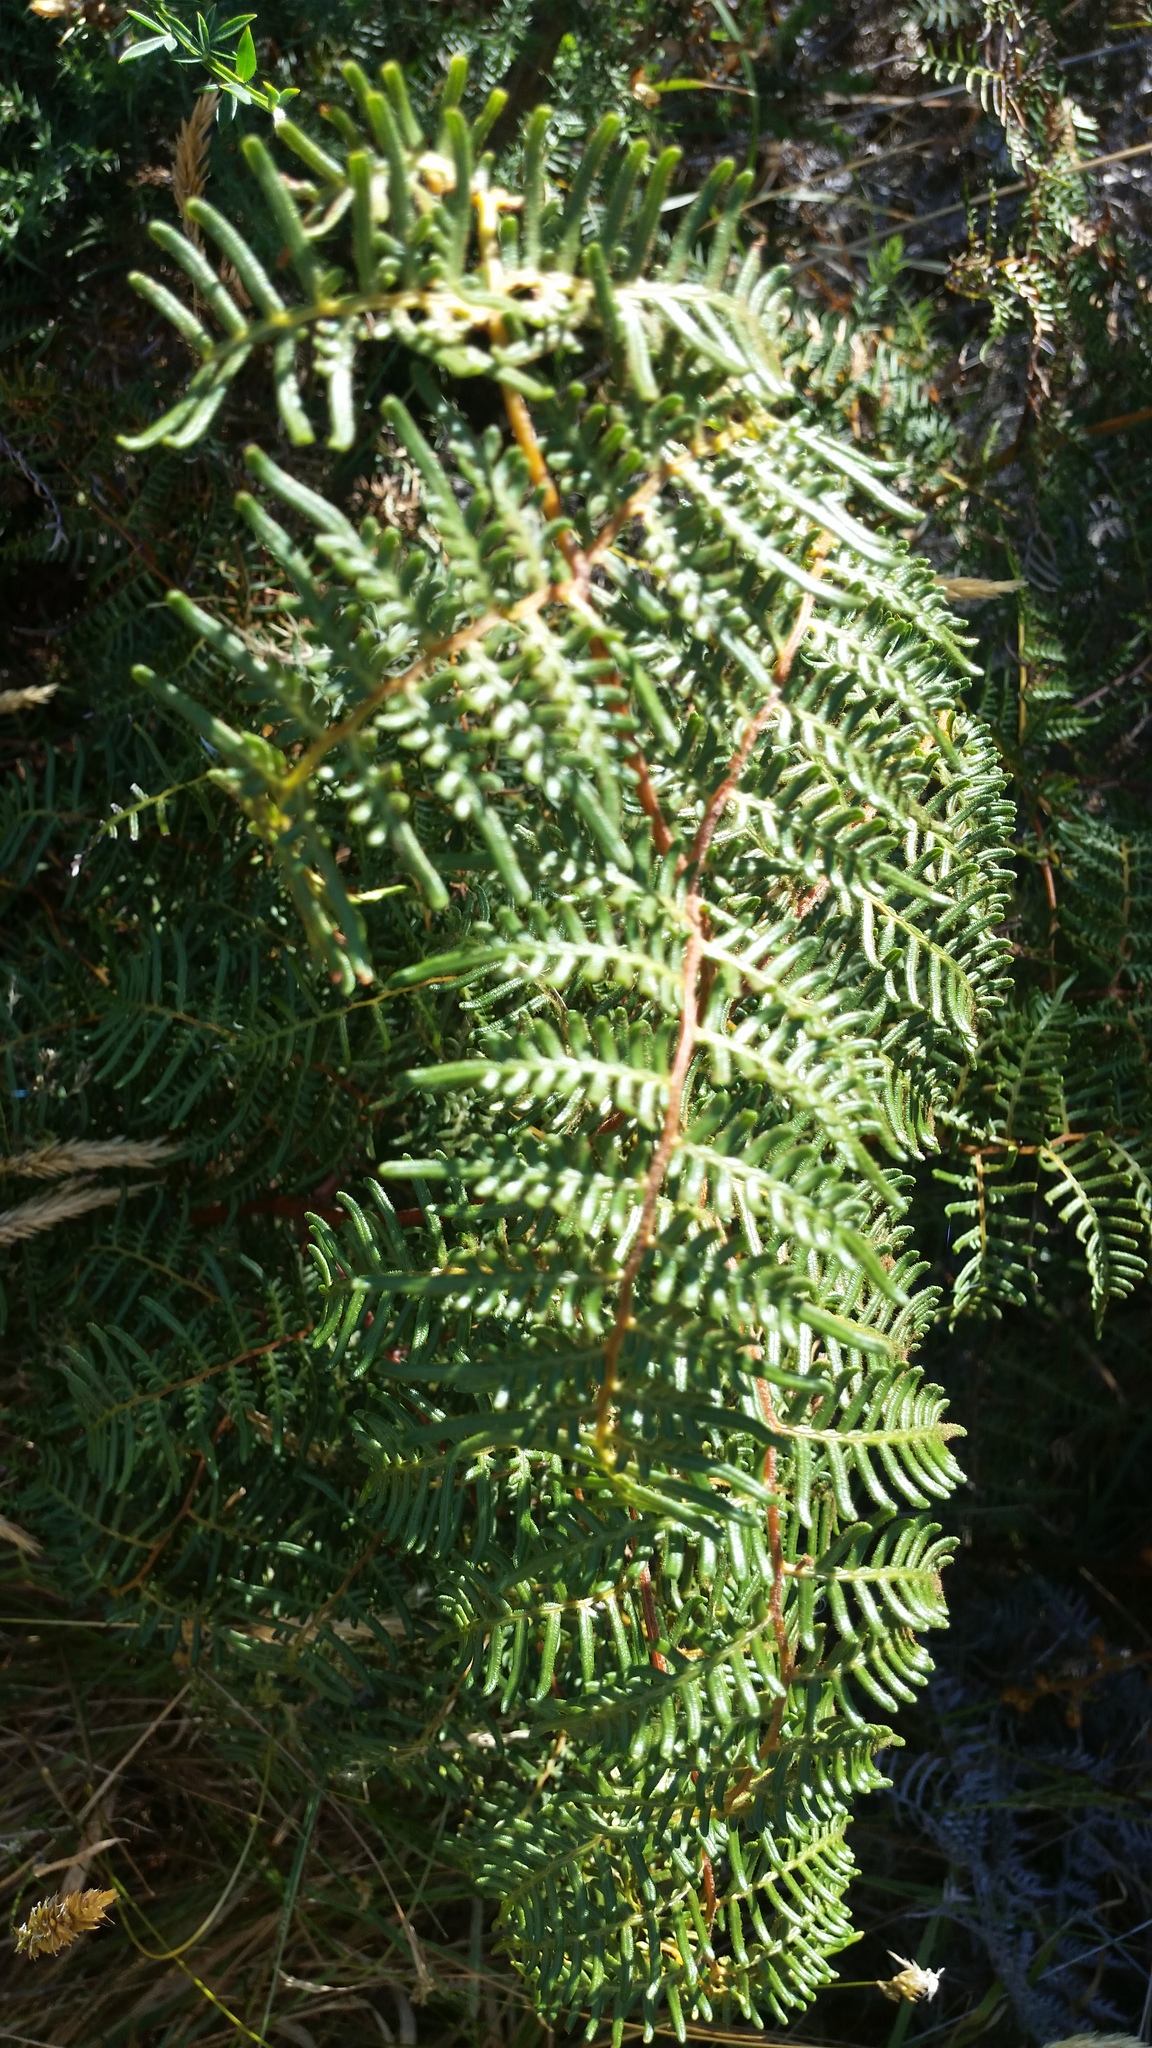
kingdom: Plantae
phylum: Tracheophyta
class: Polypodiopsida
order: Polypodiales
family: Dennstaedtiaceae
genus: Pteridium
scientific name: Pteridium esculentum
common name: Bracken fern
